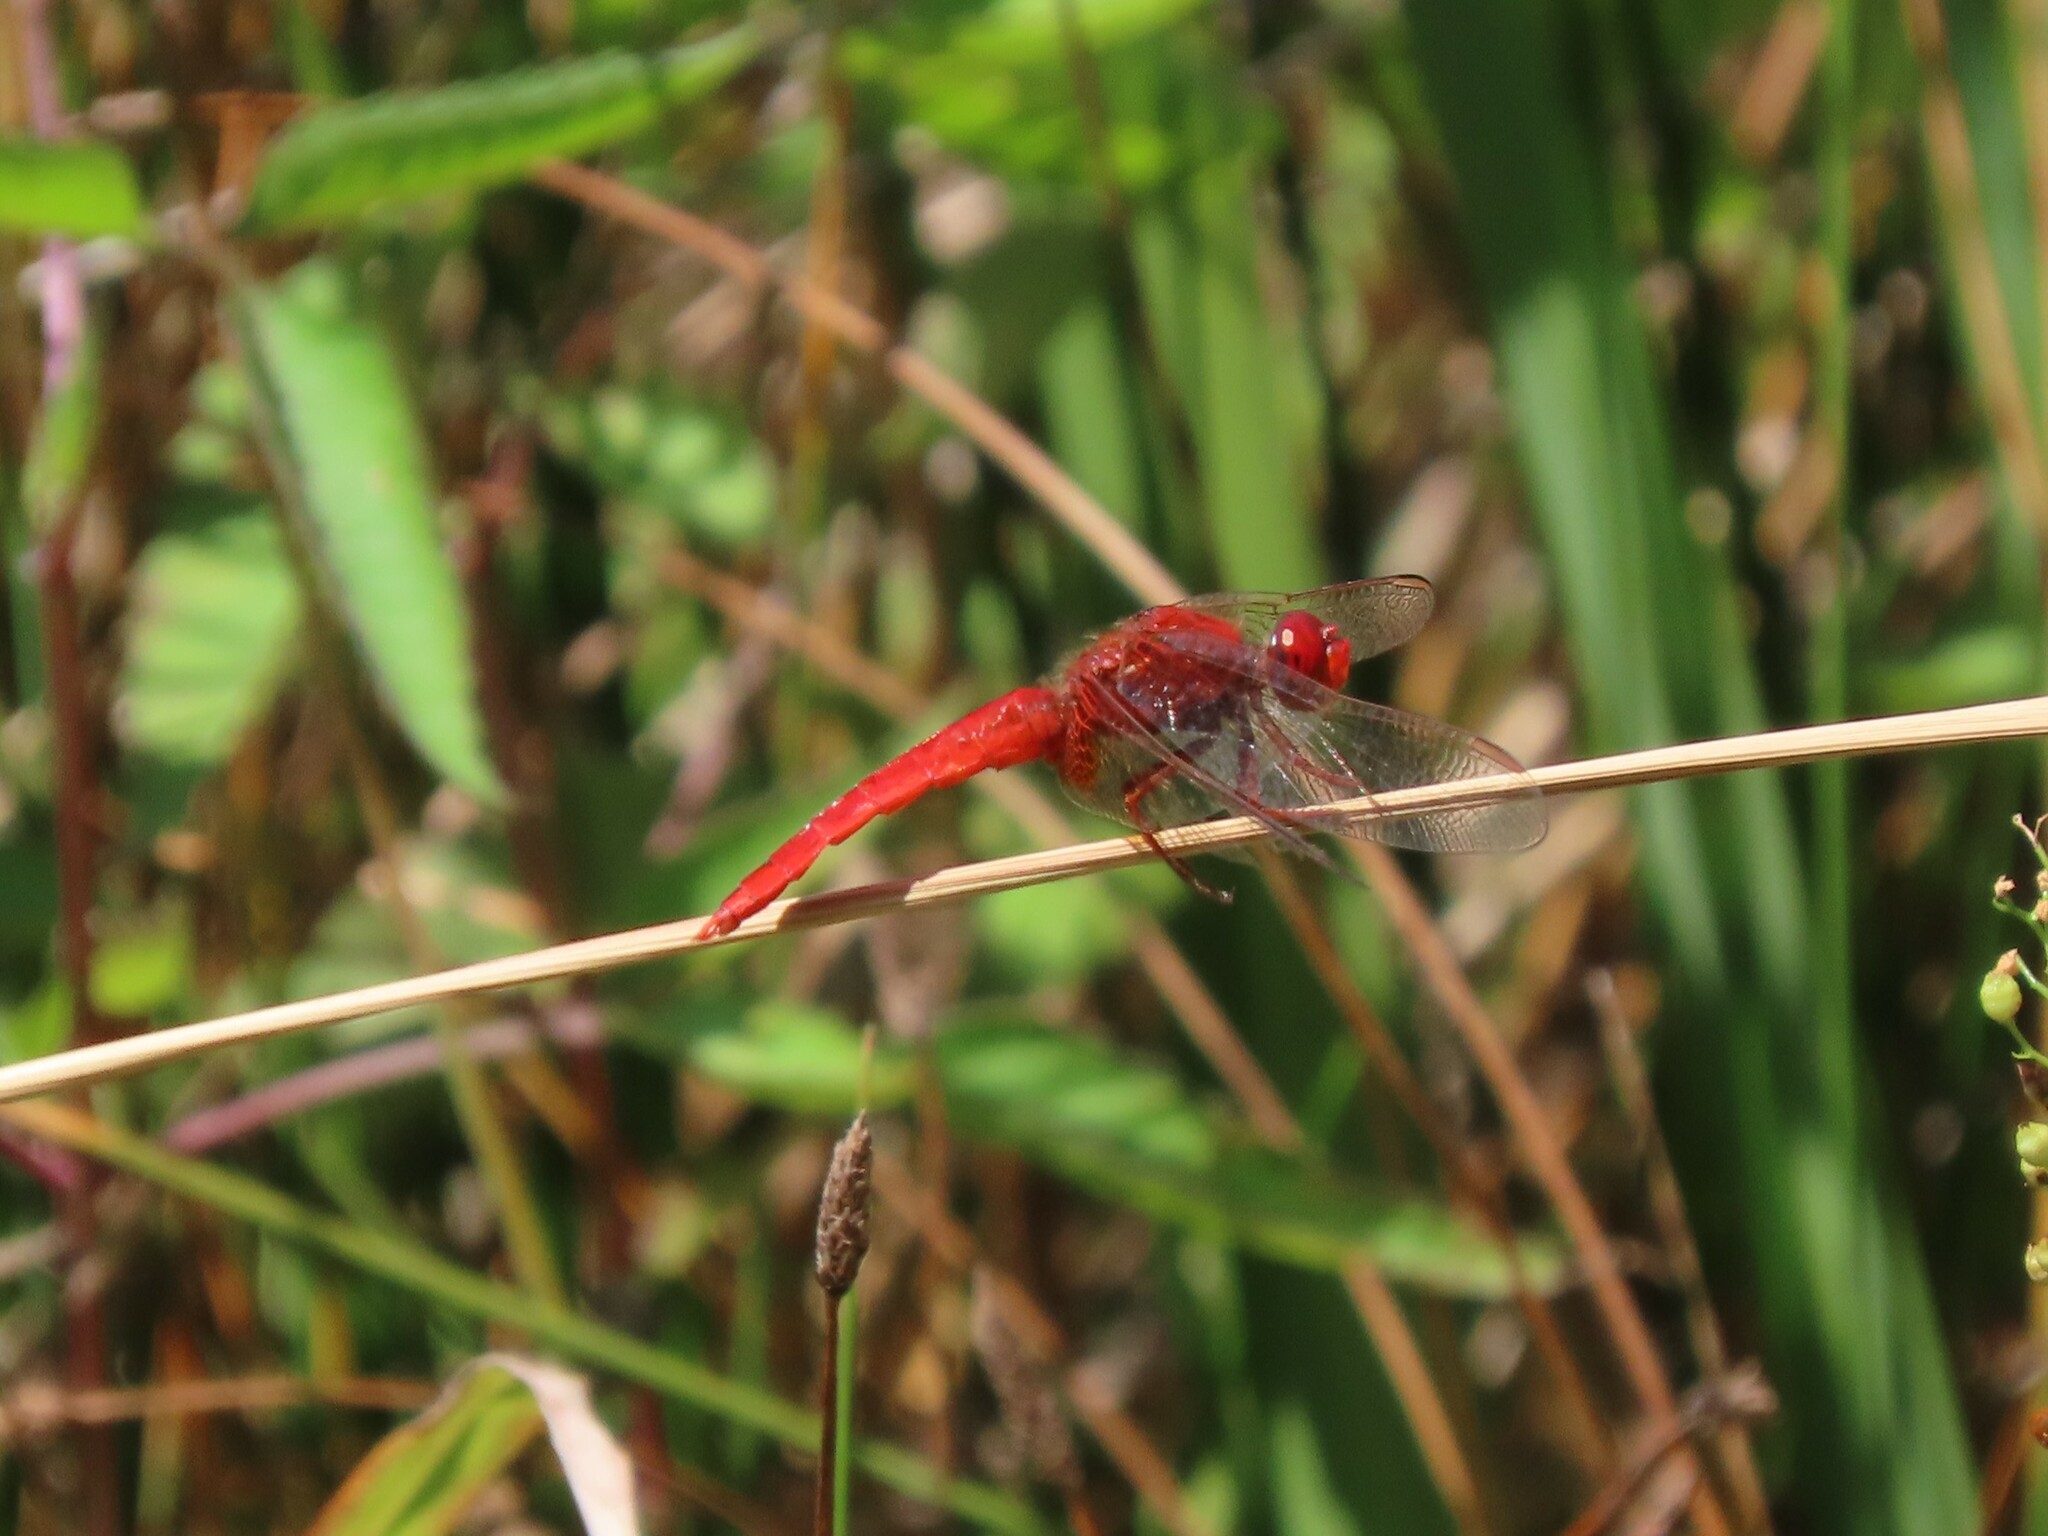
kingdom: Animalia
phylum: Arthropoda
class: Insecta
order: Odonata
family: Libellulidae
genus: Crocothemis
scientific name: Crocothemis erythraea
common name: Scarlet dragonfly
